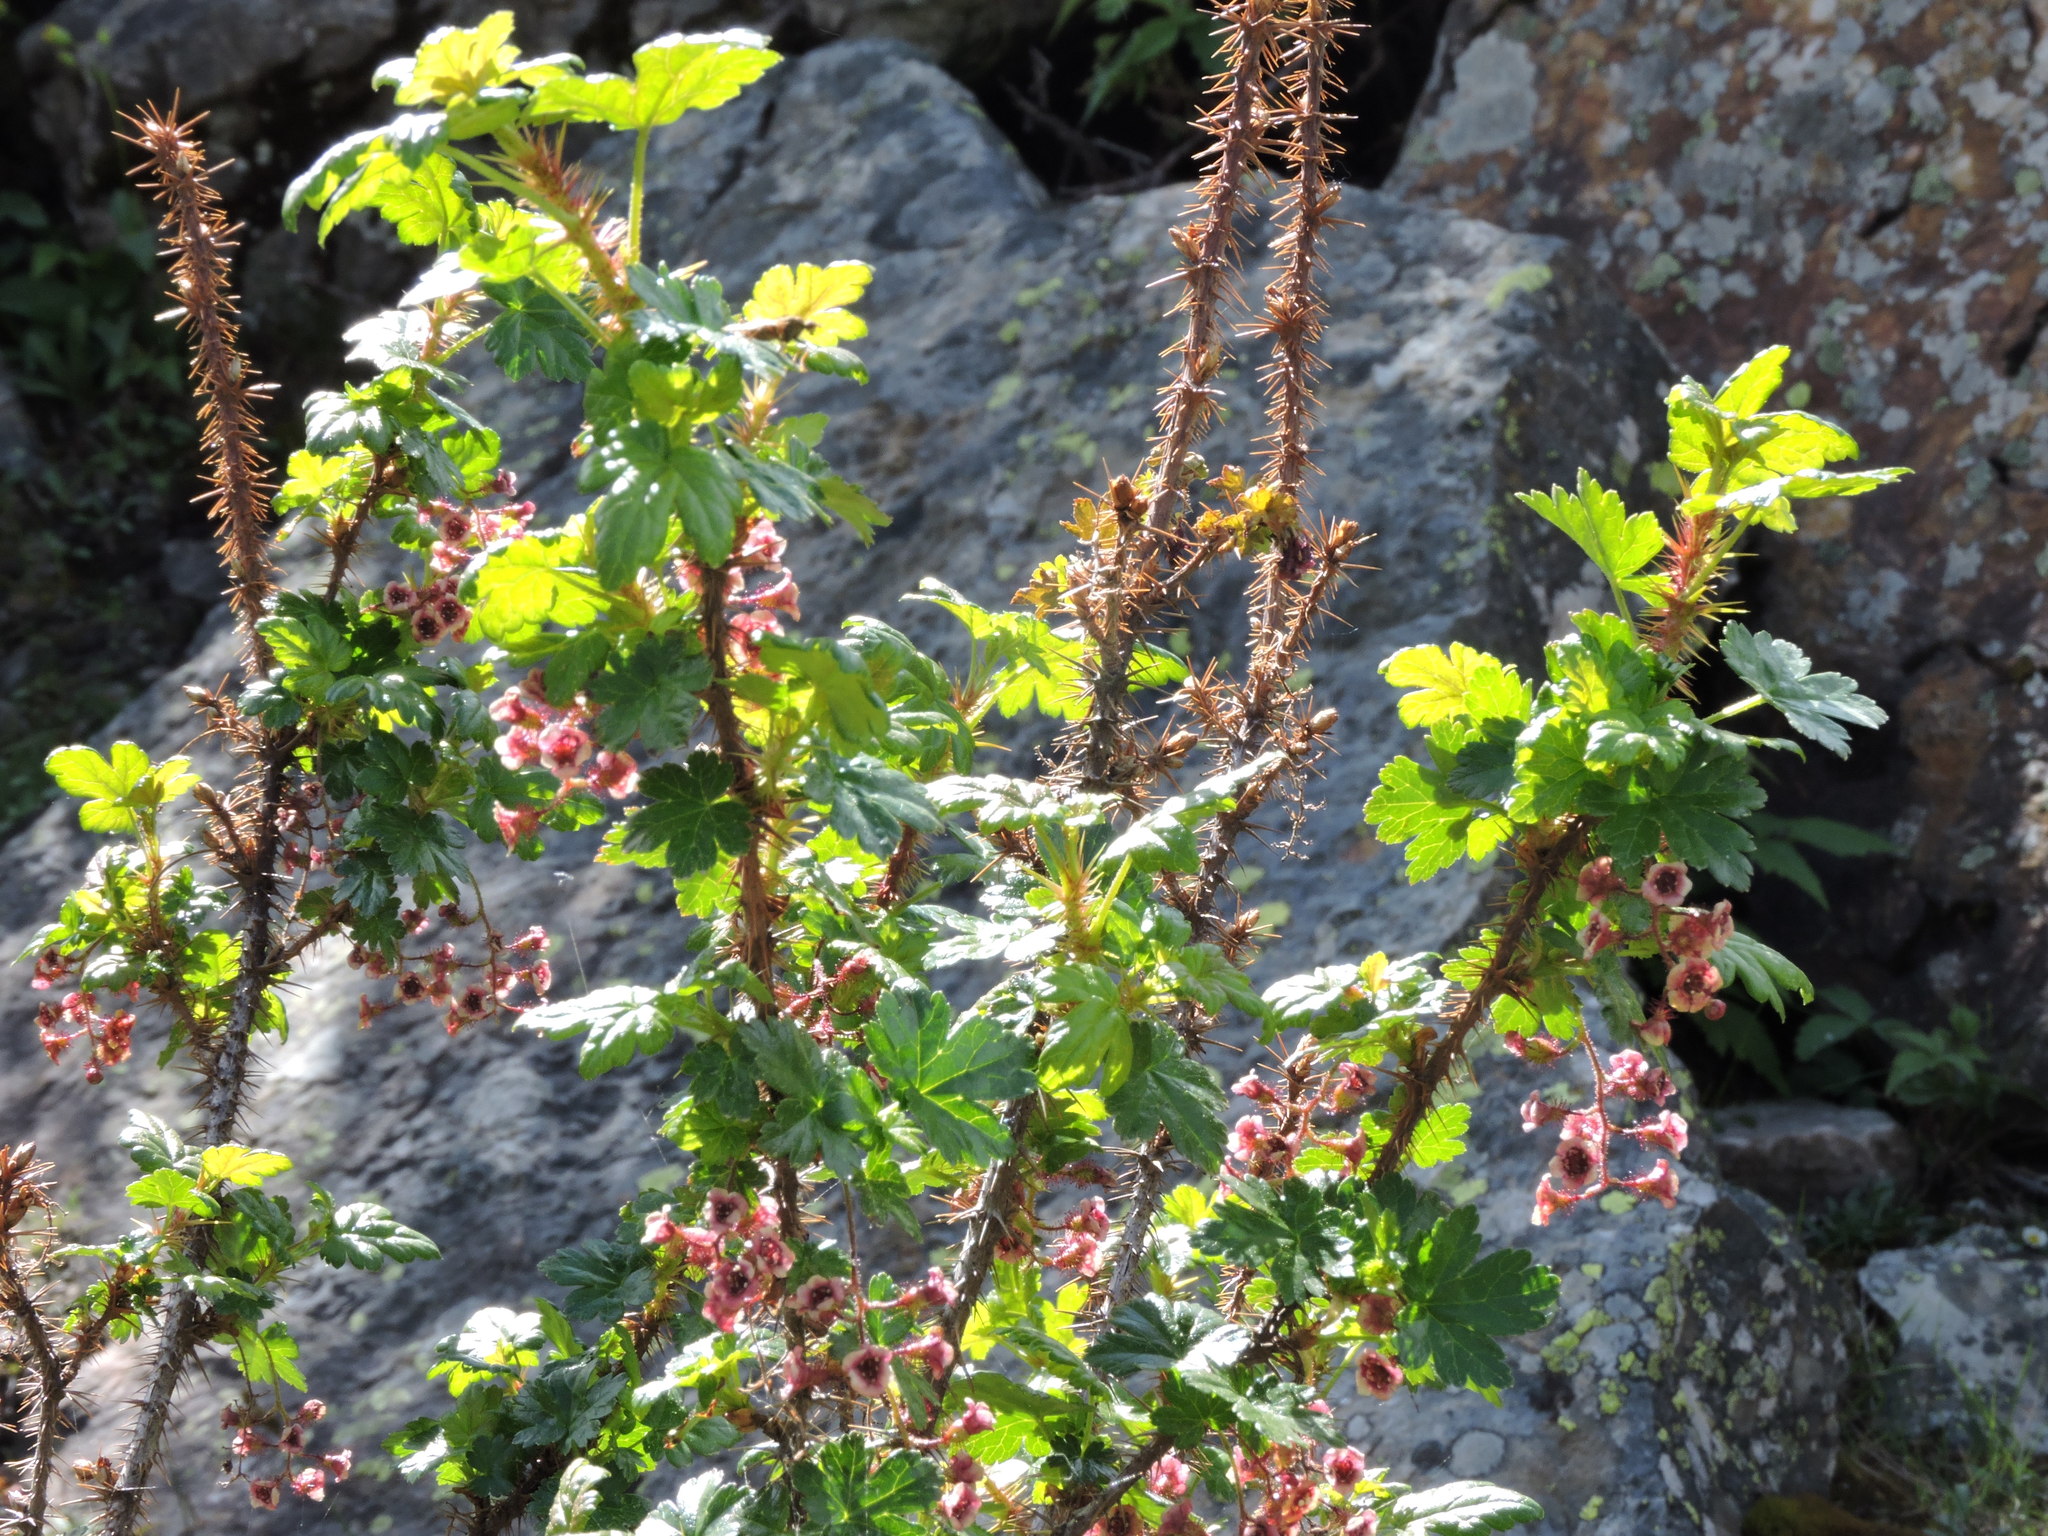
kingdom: Plantae
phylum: Tracheophyta
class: Magnoliopsida
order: Saxifragales
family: Grossulariaceae
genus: Ribes
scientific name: Ribes lacustre
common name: Black gooseberry
